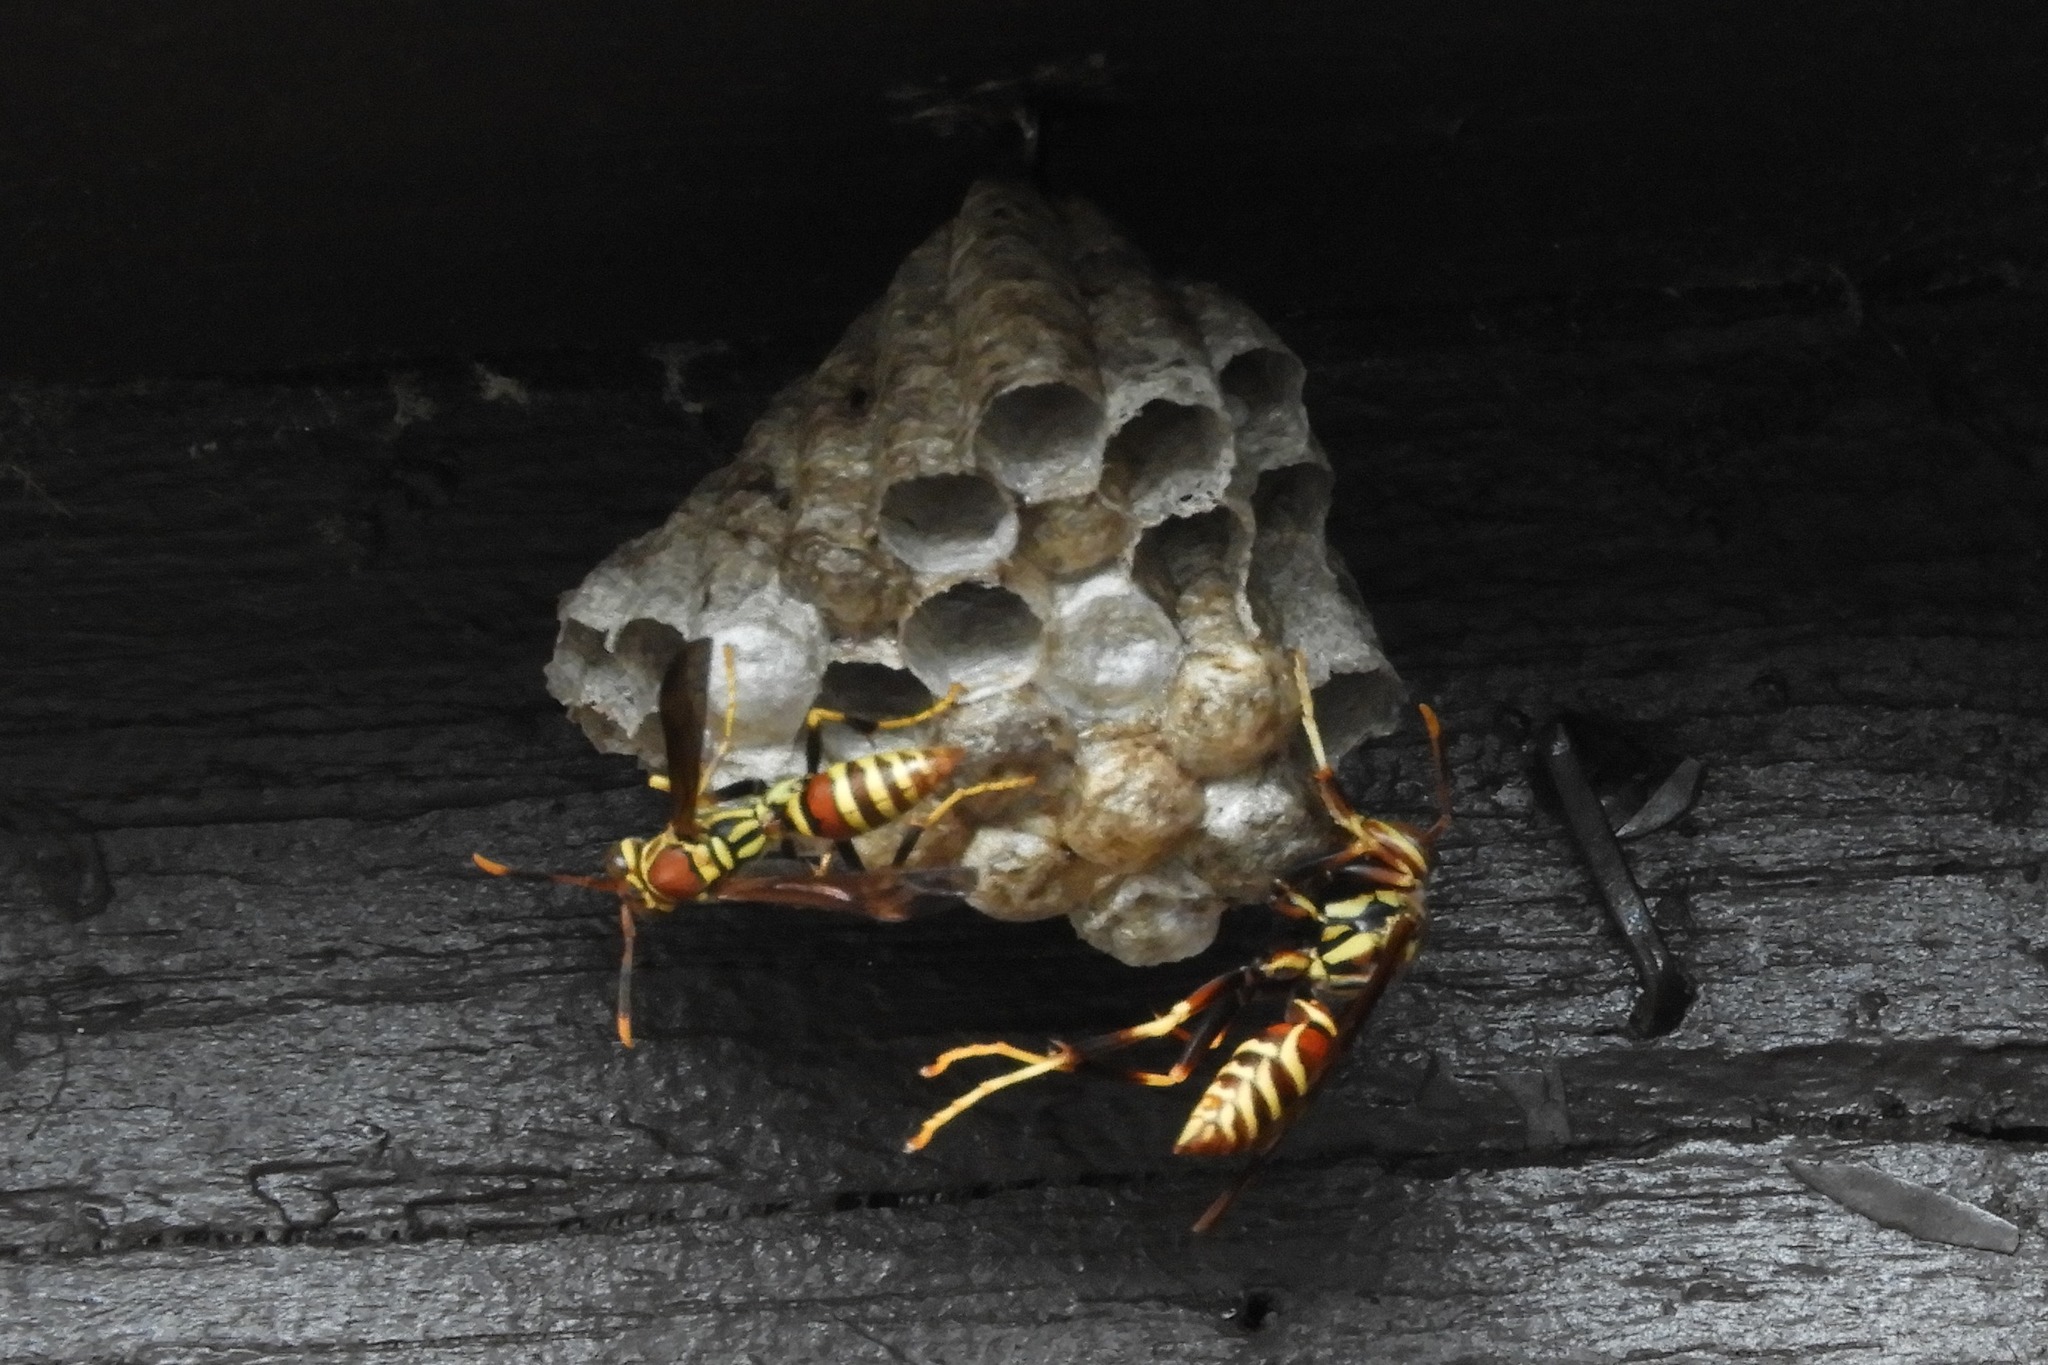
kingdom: Animalia
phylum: Arthropoda
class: Insecta
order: Hymenoptera
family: Eumenidae
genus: Polistes
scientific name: Polistes exclamans
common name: Paper wasp
